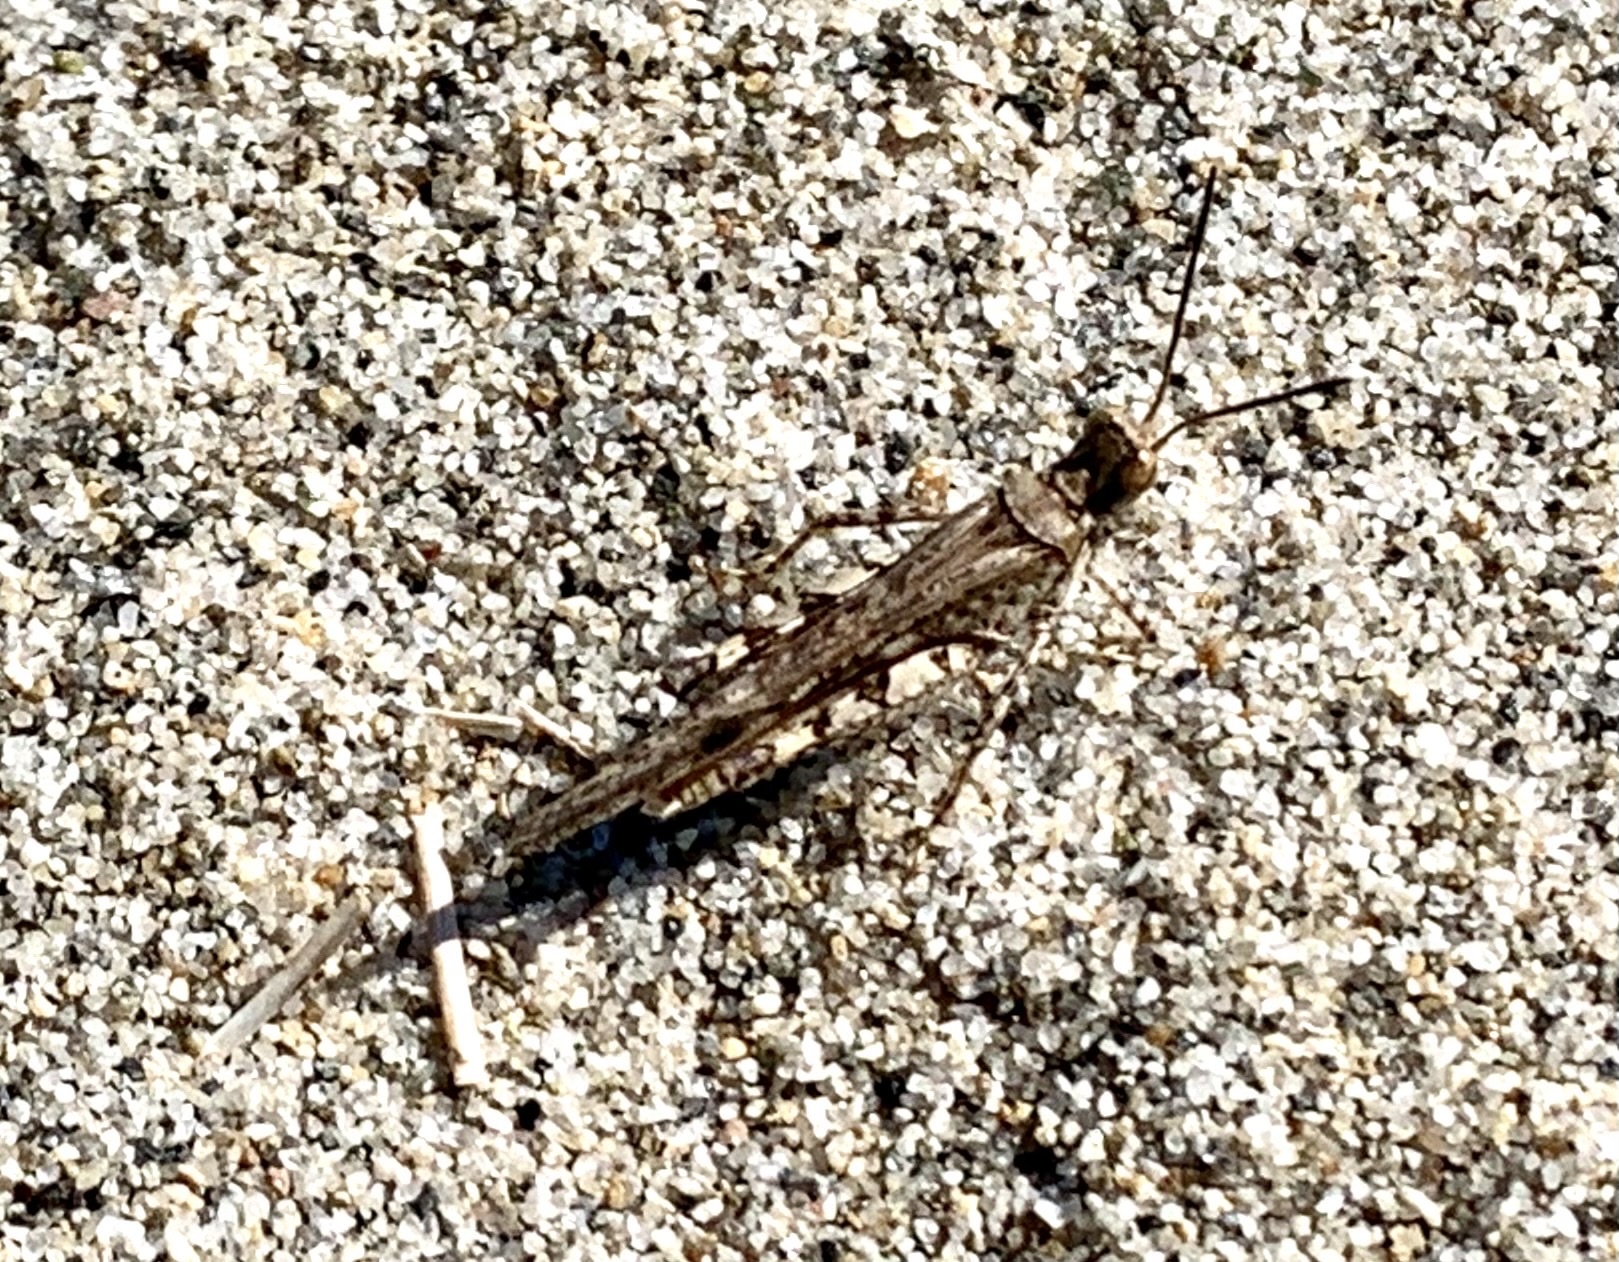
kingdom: Animalia
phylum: Arthropoda
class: Insecta
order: Orthoptera
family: Acrididae
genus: Acrotylus
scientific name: Acrotylus patruelis
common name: Slender burrowing grasshopper
